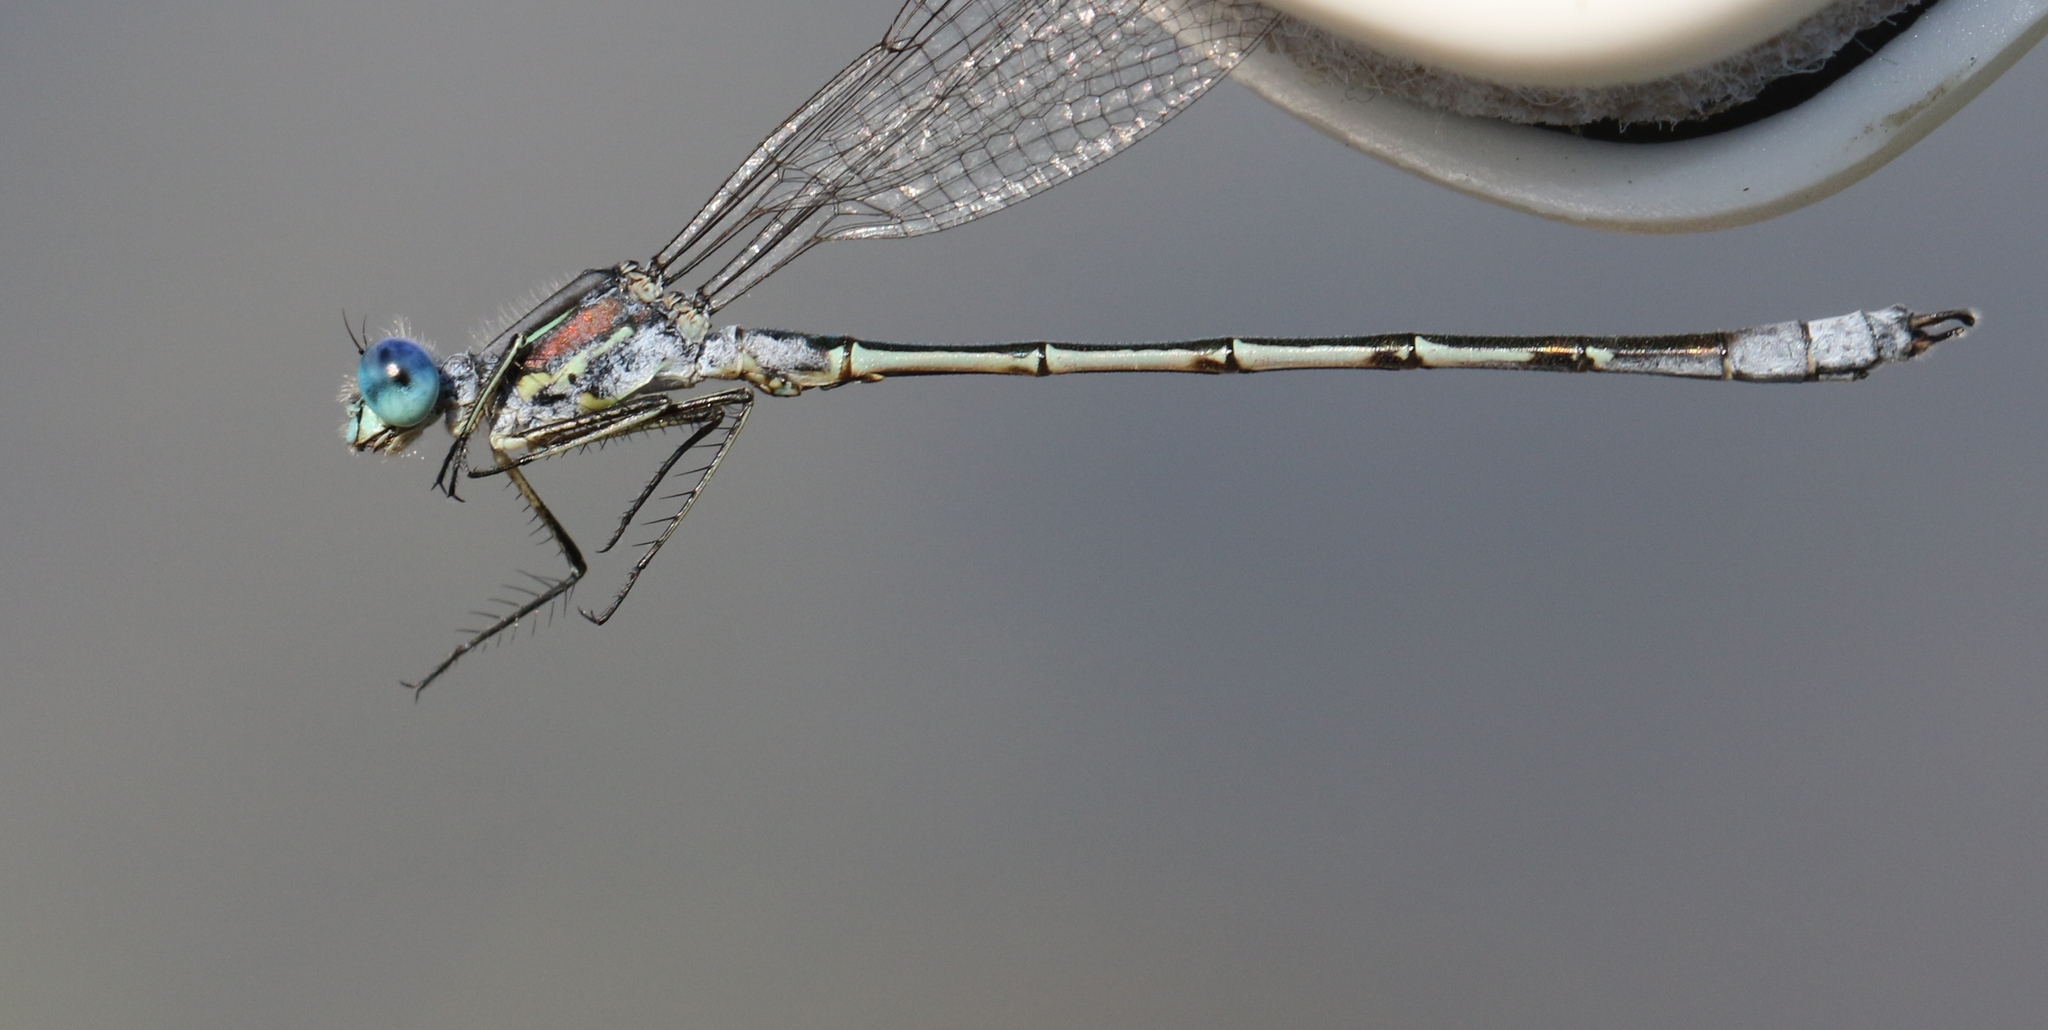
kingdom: Animalia
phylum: Arthropoda
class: Insecta
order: Odonata
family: Lestidae
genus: Lestes
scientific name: Lestes unguiculatus
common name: Lyre-tipped spreadwing
